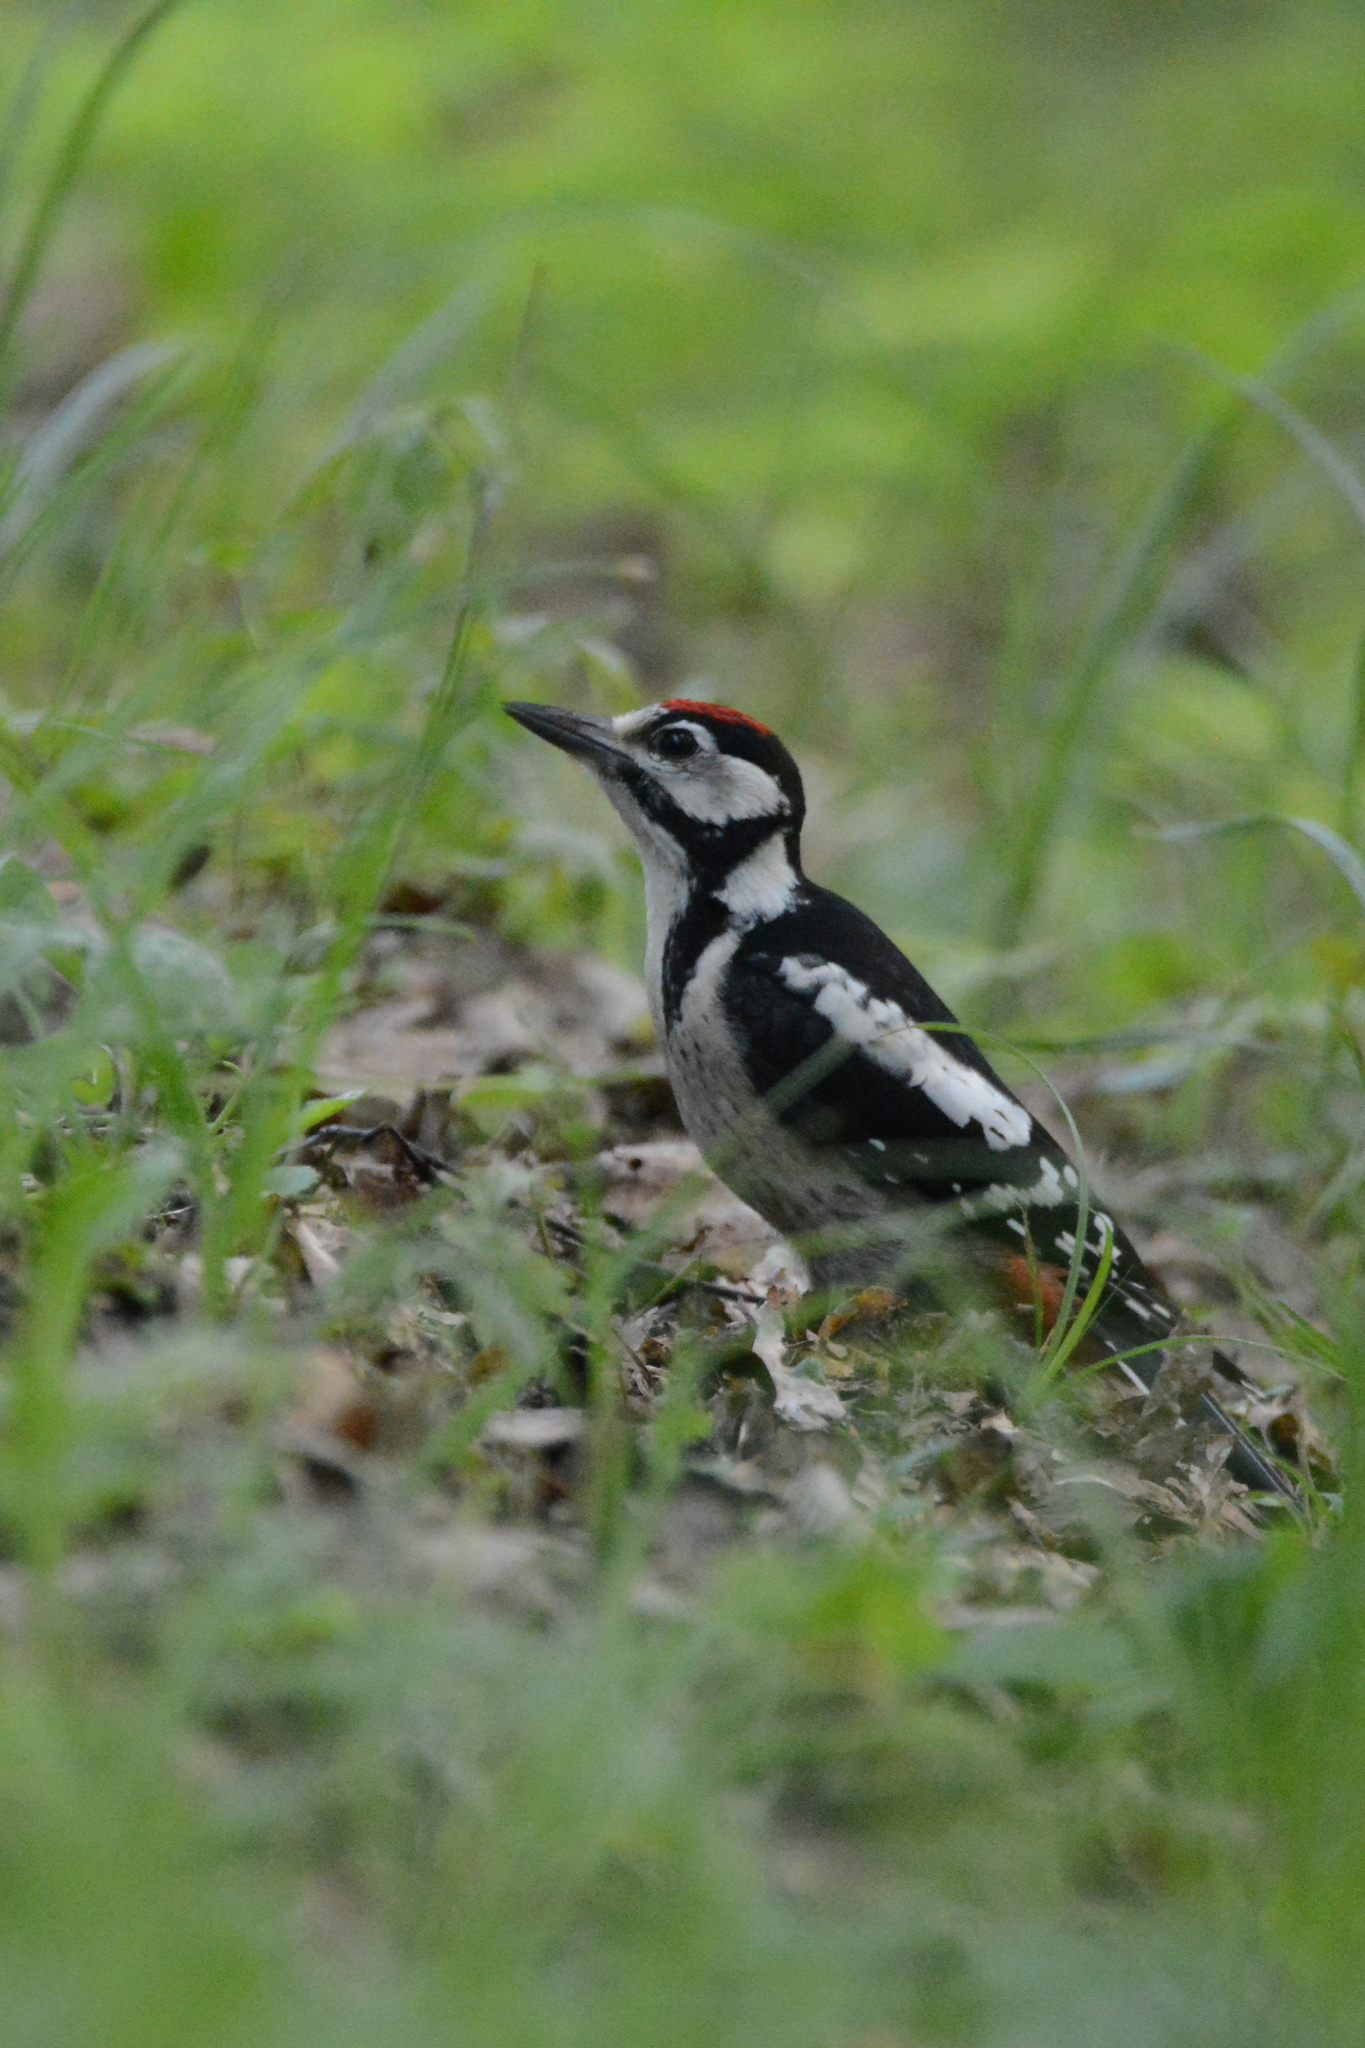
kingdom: Animalia
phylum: Chordata
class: Aves
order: Piciformes
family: Picidae
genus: Dendrocopos
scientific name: Dendrocopos major
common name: Great spotted woodpecker
